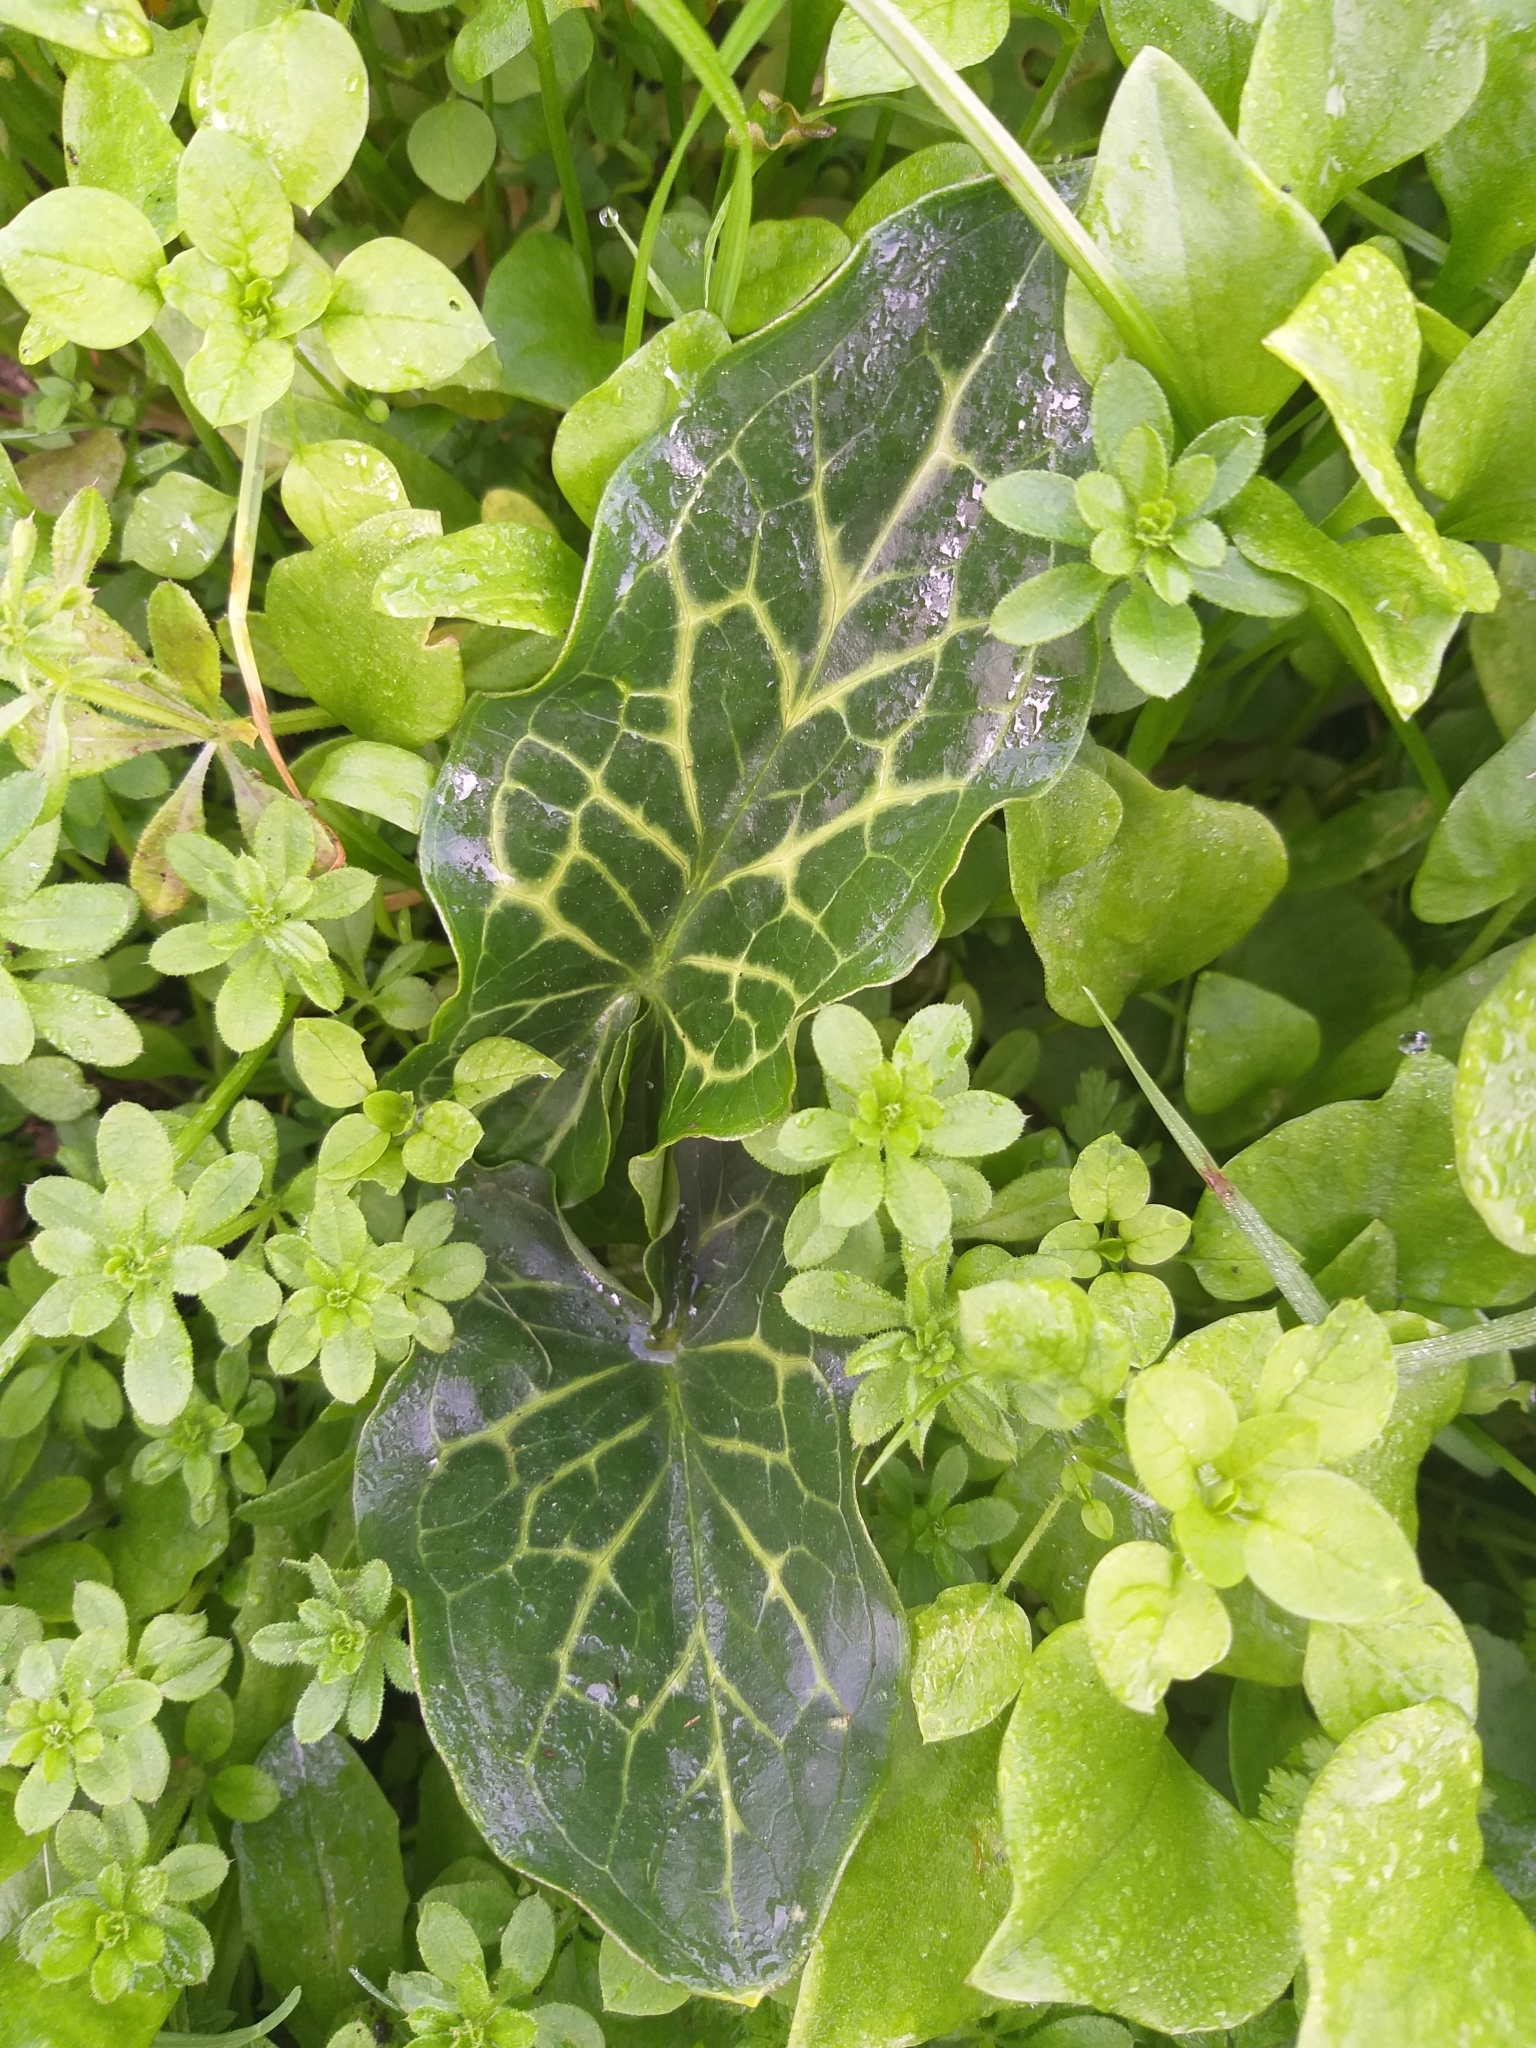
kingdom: Plantae
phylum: Tracheophyta
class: Liliopsida
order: Alismatales
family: Araceae
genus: Arum
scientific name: Arum italicum
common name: Italian lords-and-ladies
